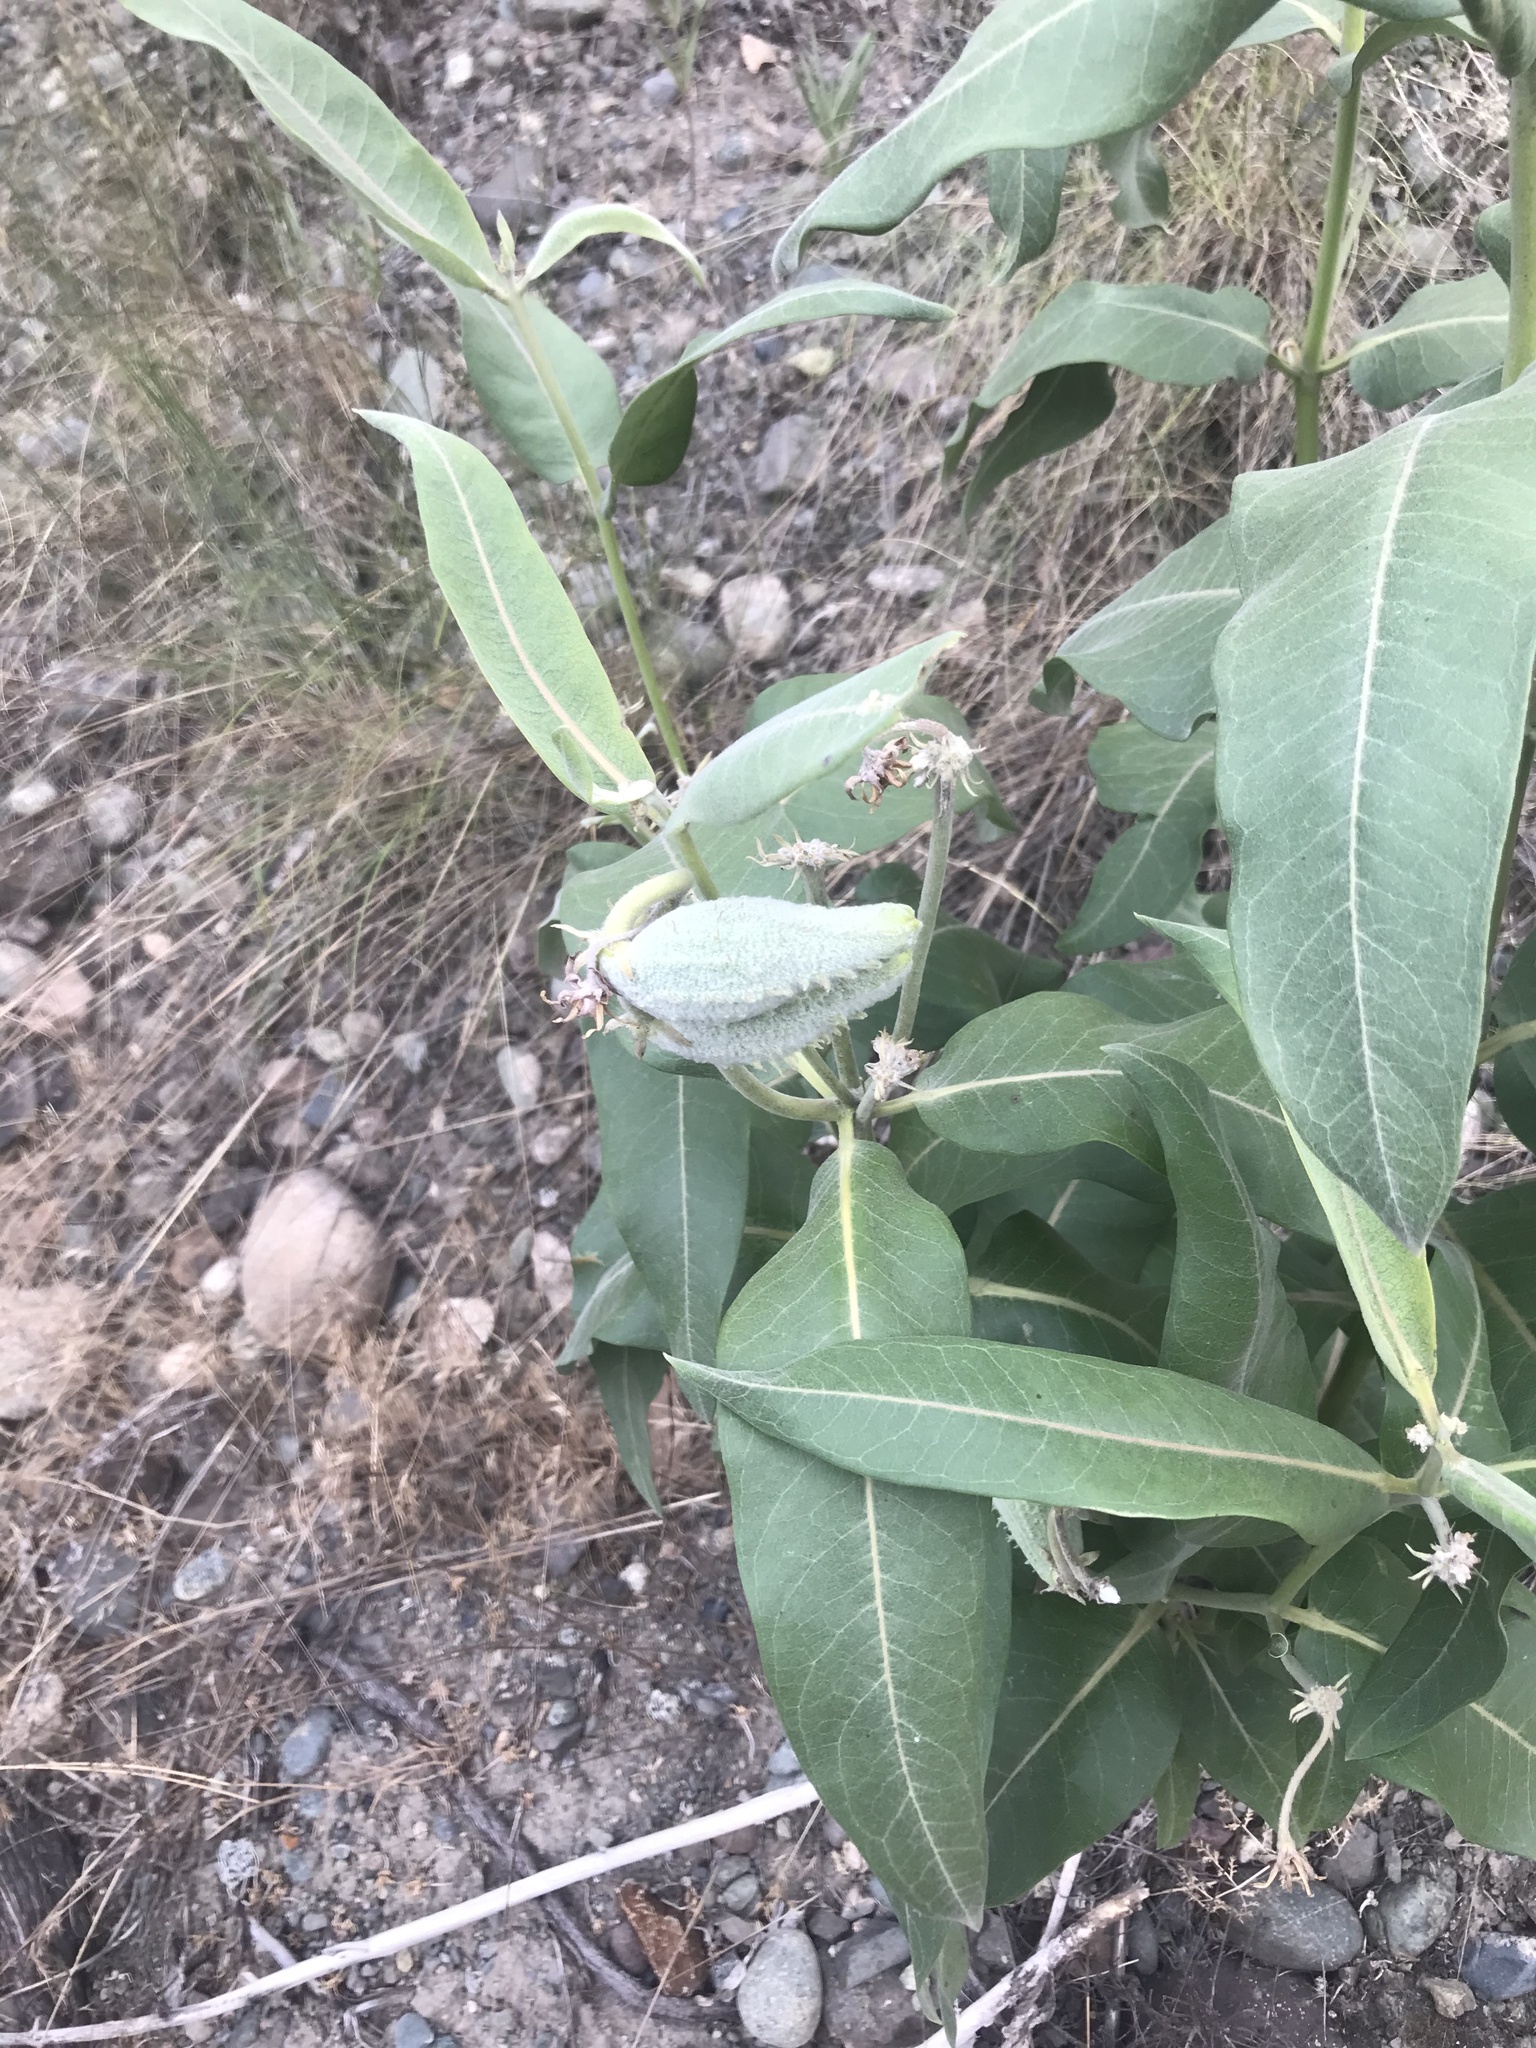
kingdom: Plantae
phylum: Tracheophyta
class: Magnoliopsida
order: Gentianales
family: Apocynaceae
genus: Asclepias
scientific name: Asclepias speciosa
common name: Showy milkweed
